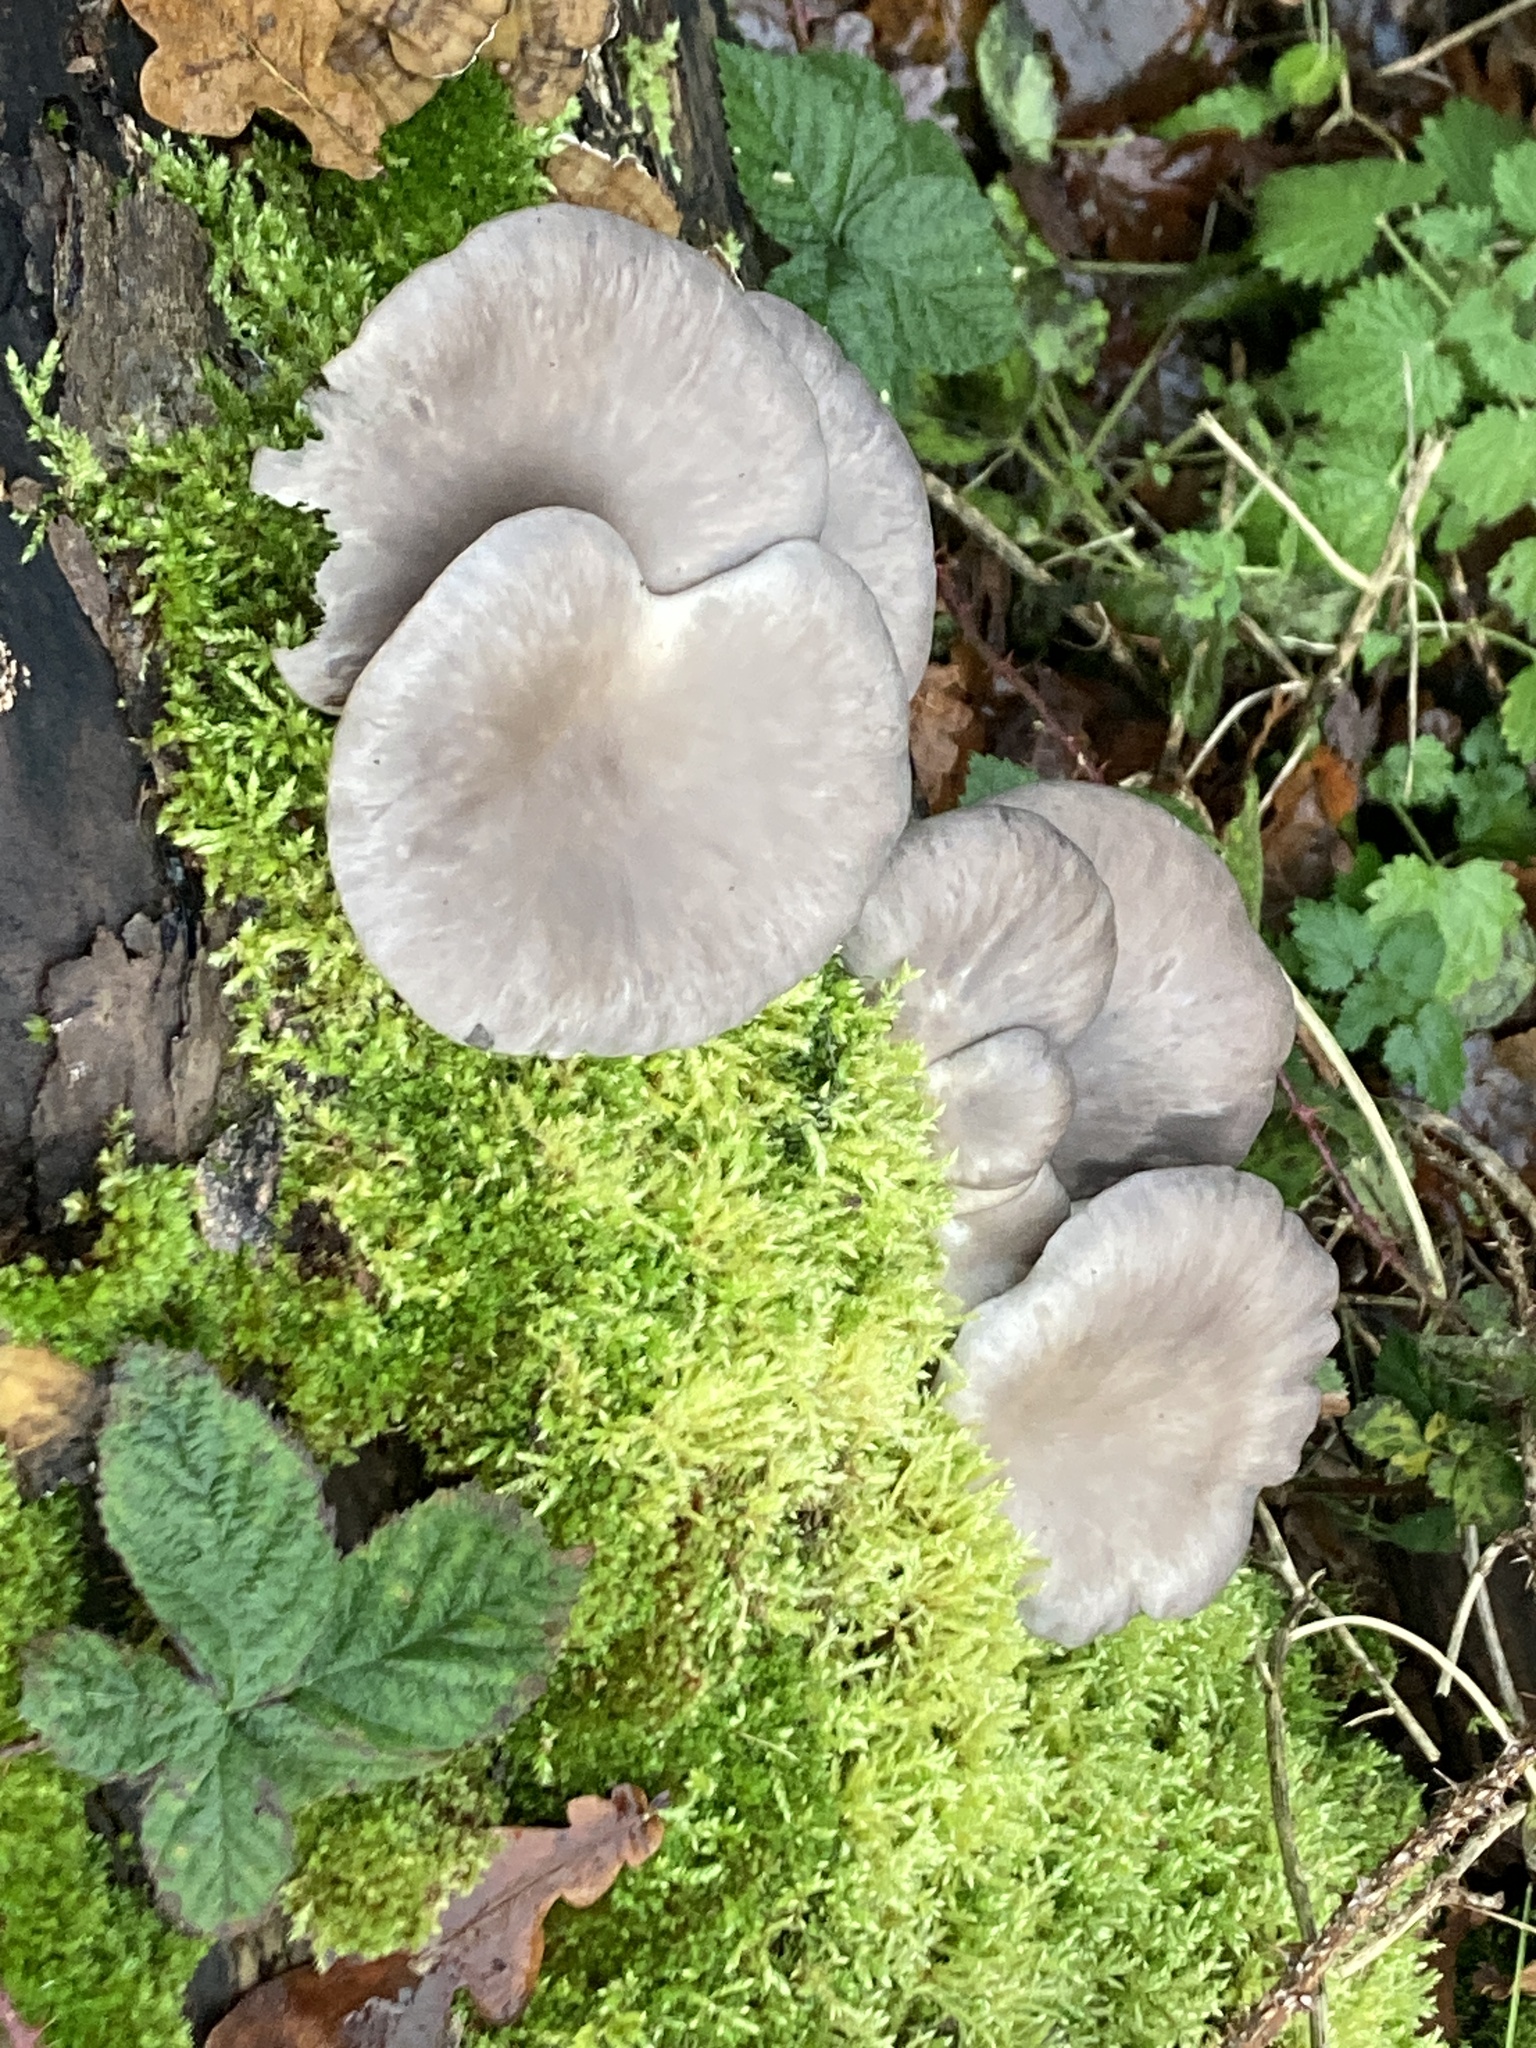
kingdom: Fungi
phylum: Basidiomycota
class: Agaricomycetes
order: Agaricales
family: Pleurotaceae
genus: Pleurotus
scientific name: Pleurotus ostreatus
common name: Oyster mushroom
